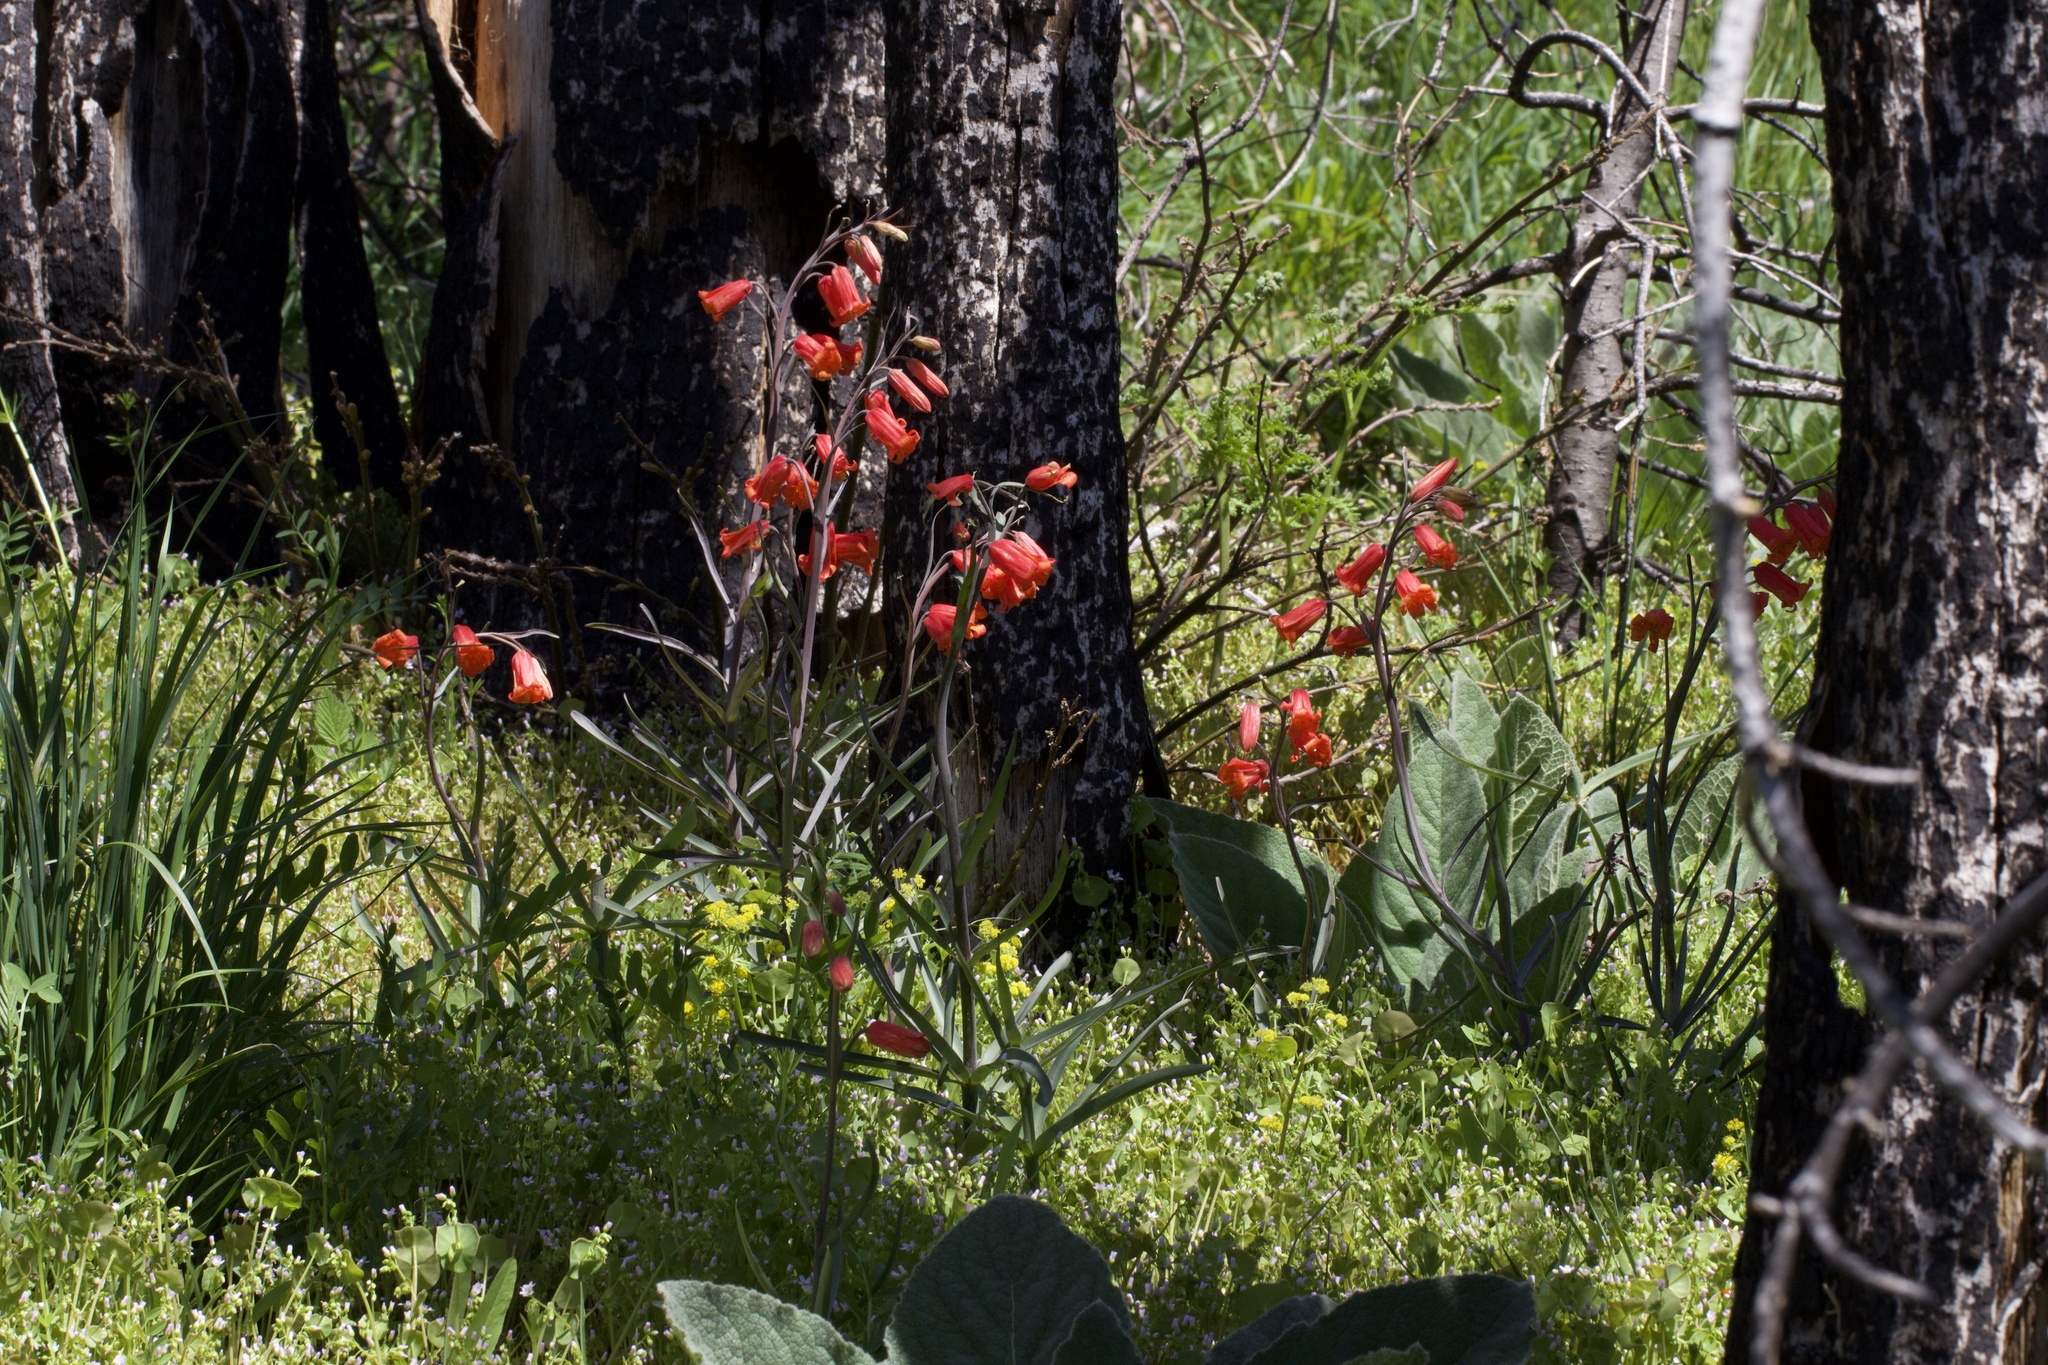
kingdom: Plantae
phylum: Tracheophyta
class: Liliopsida
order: Liliales
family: Liliaceae
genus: Fritillaria
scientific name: Fritillaria recurva
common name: Scarlet fritillary
